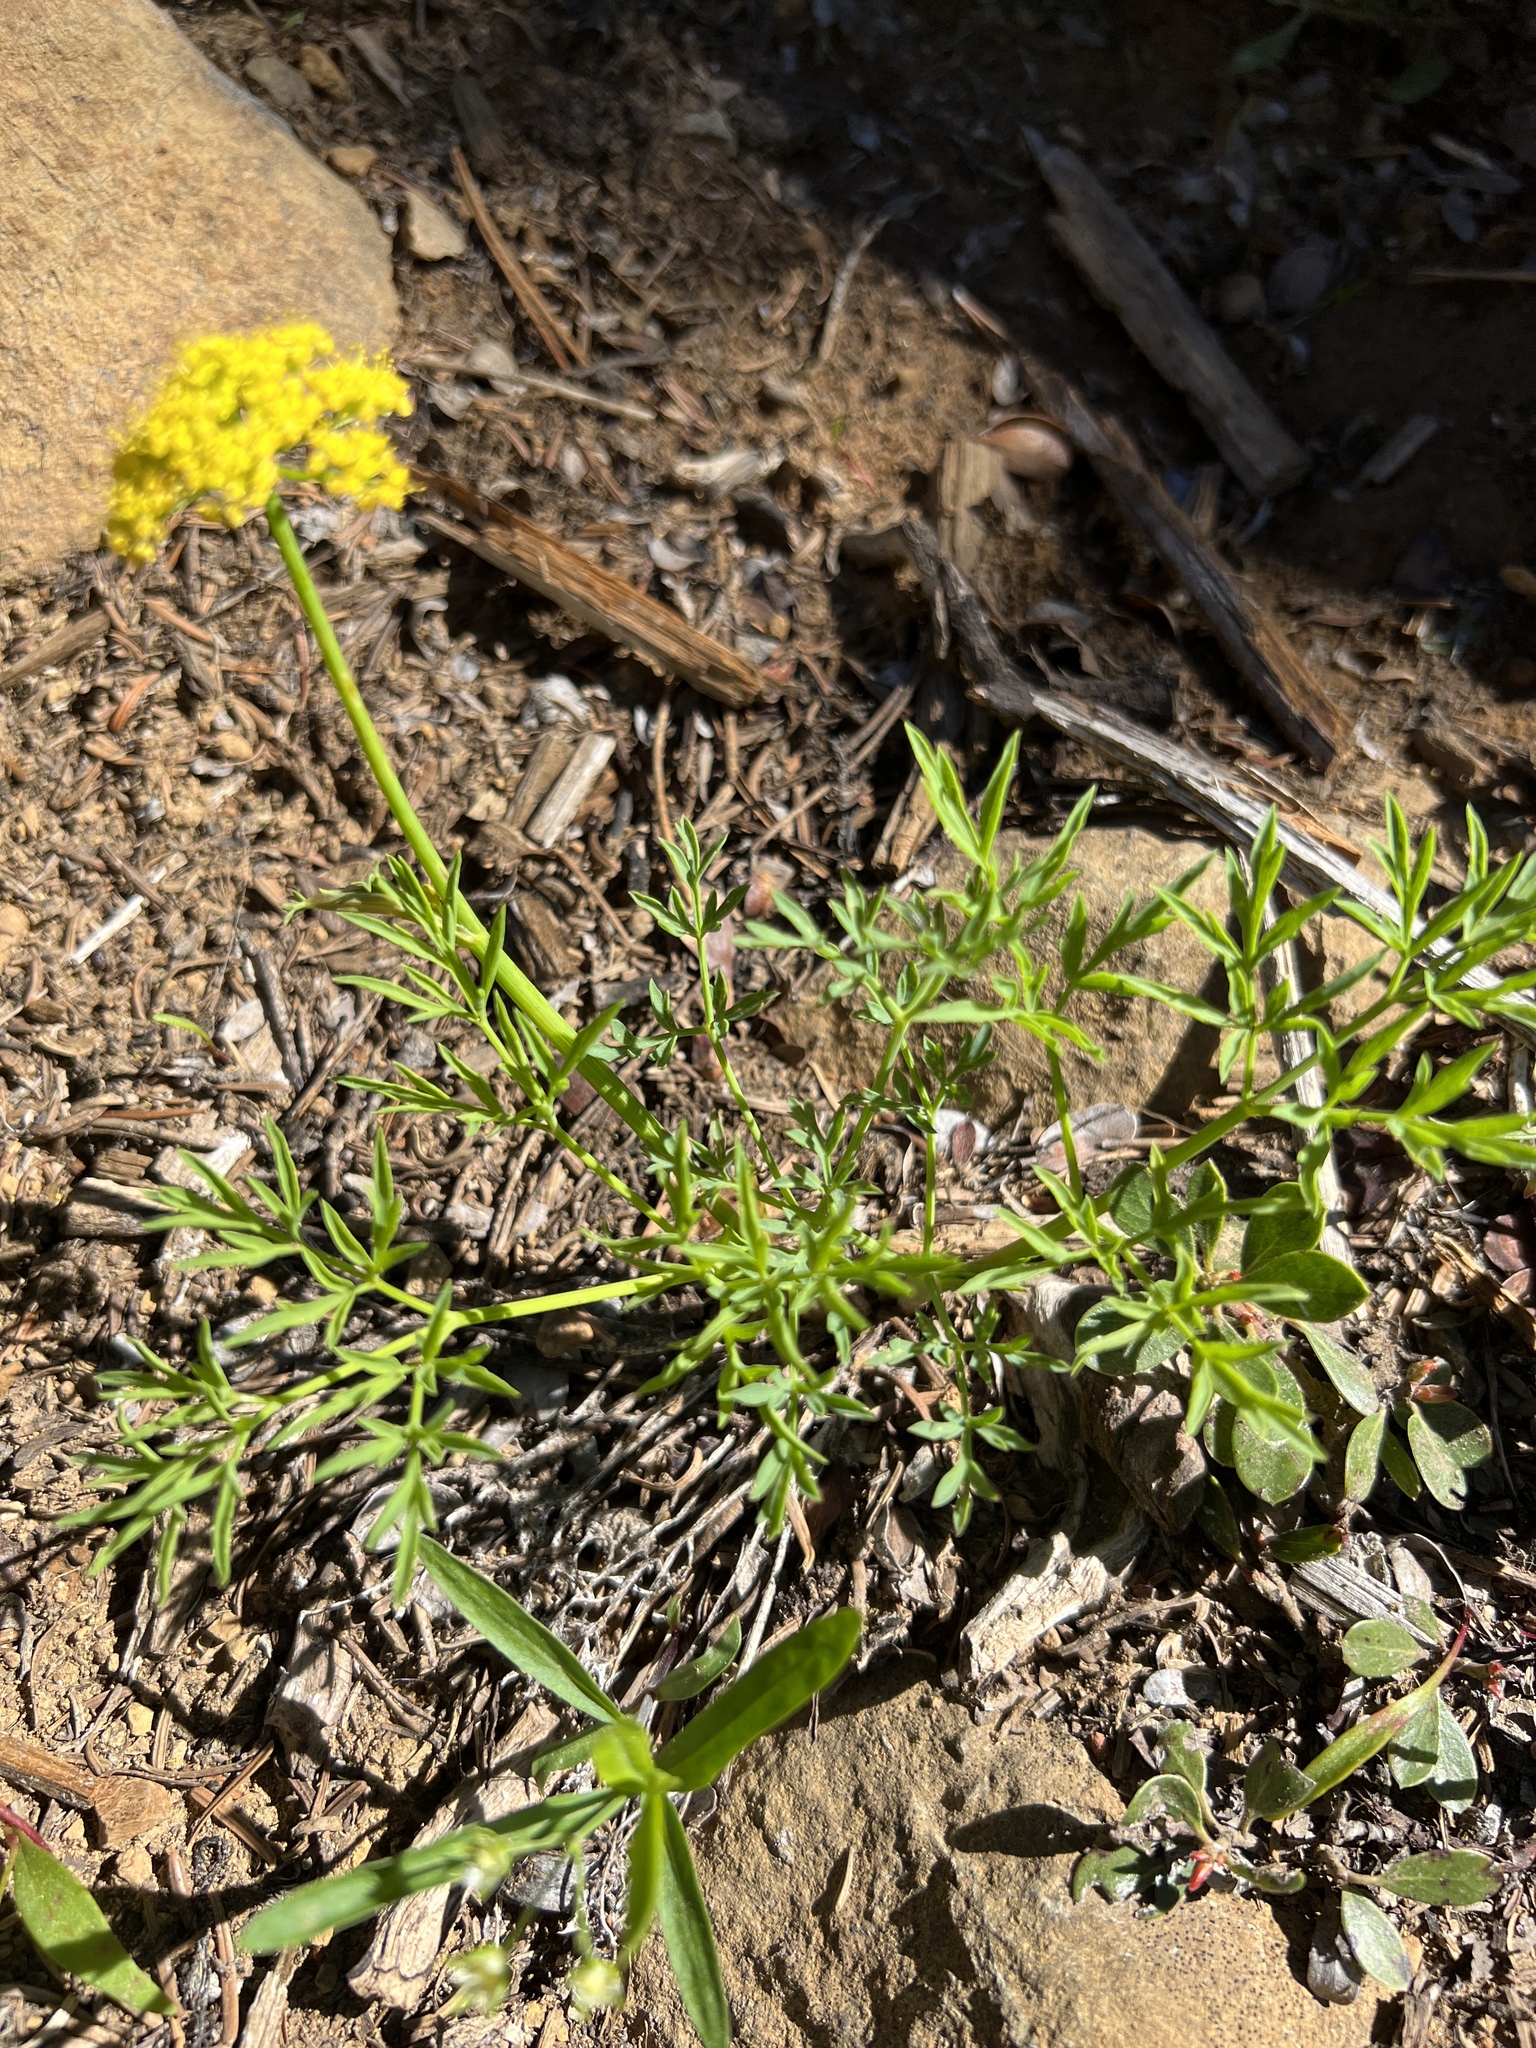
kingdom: Plantae
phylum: Tracheophyta
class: Magnoliopsida
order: Apiales
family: Apiaceae
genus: Lomatium
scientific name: Lomatium brandegeei
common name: Brandegee's desert-parsley
